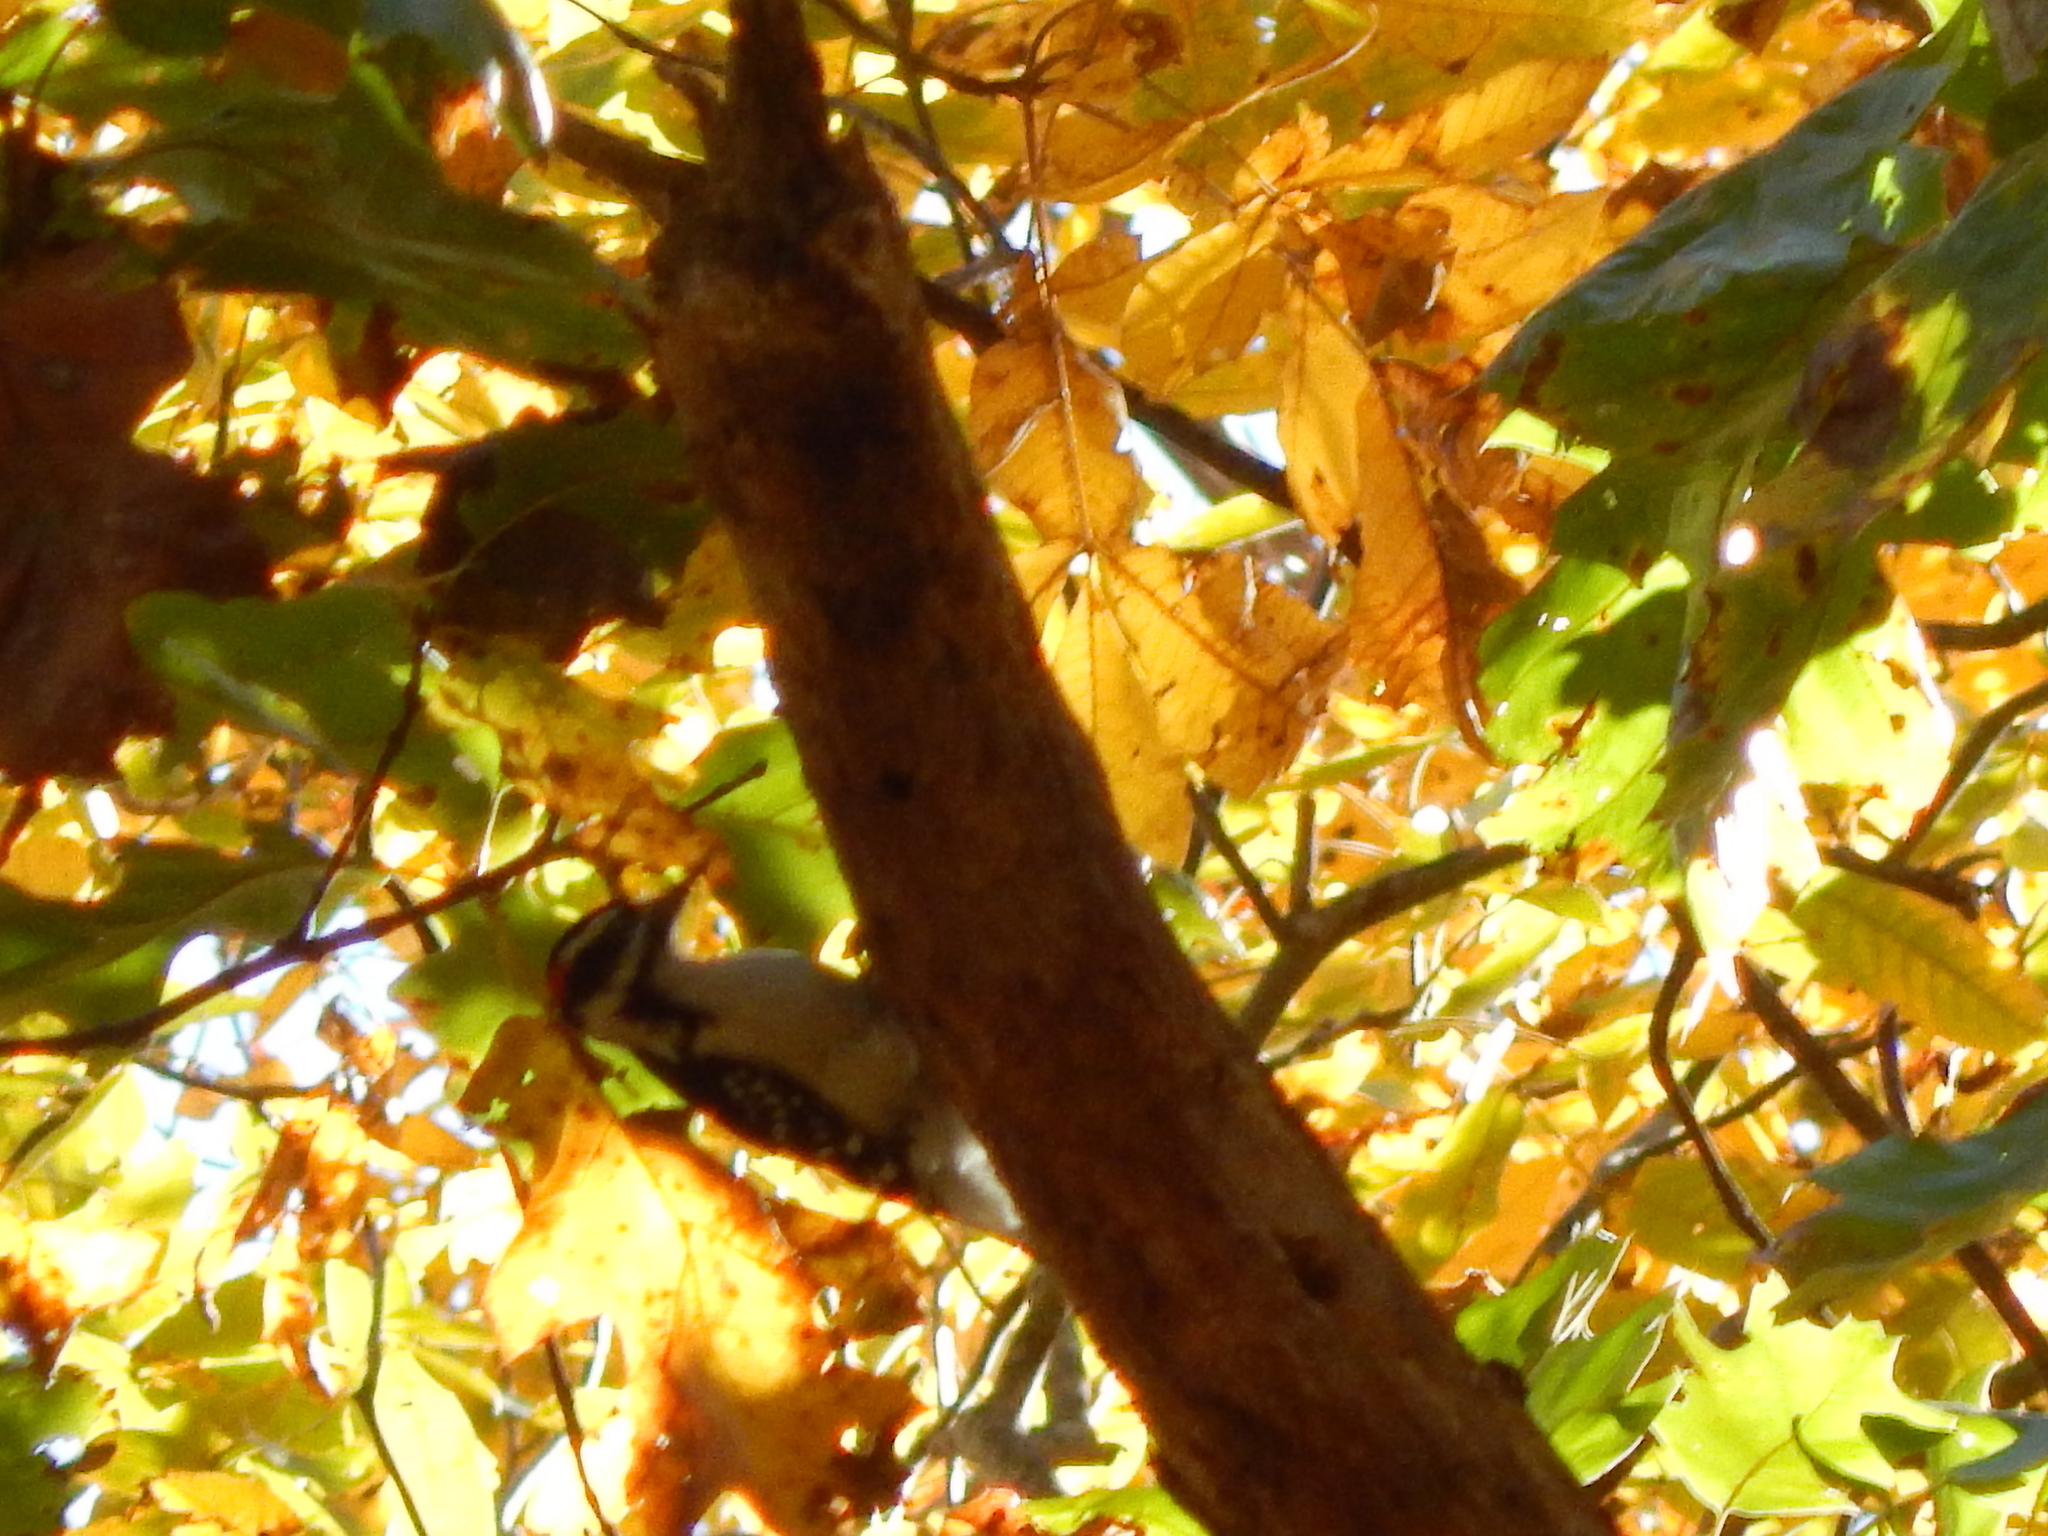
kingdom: Animalia
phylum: Chordata
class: Aves
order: Piciformes
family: Picidae
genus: Leuconotopicus
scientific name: Leuconotopicus villosus
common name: Hairy woodpecker
